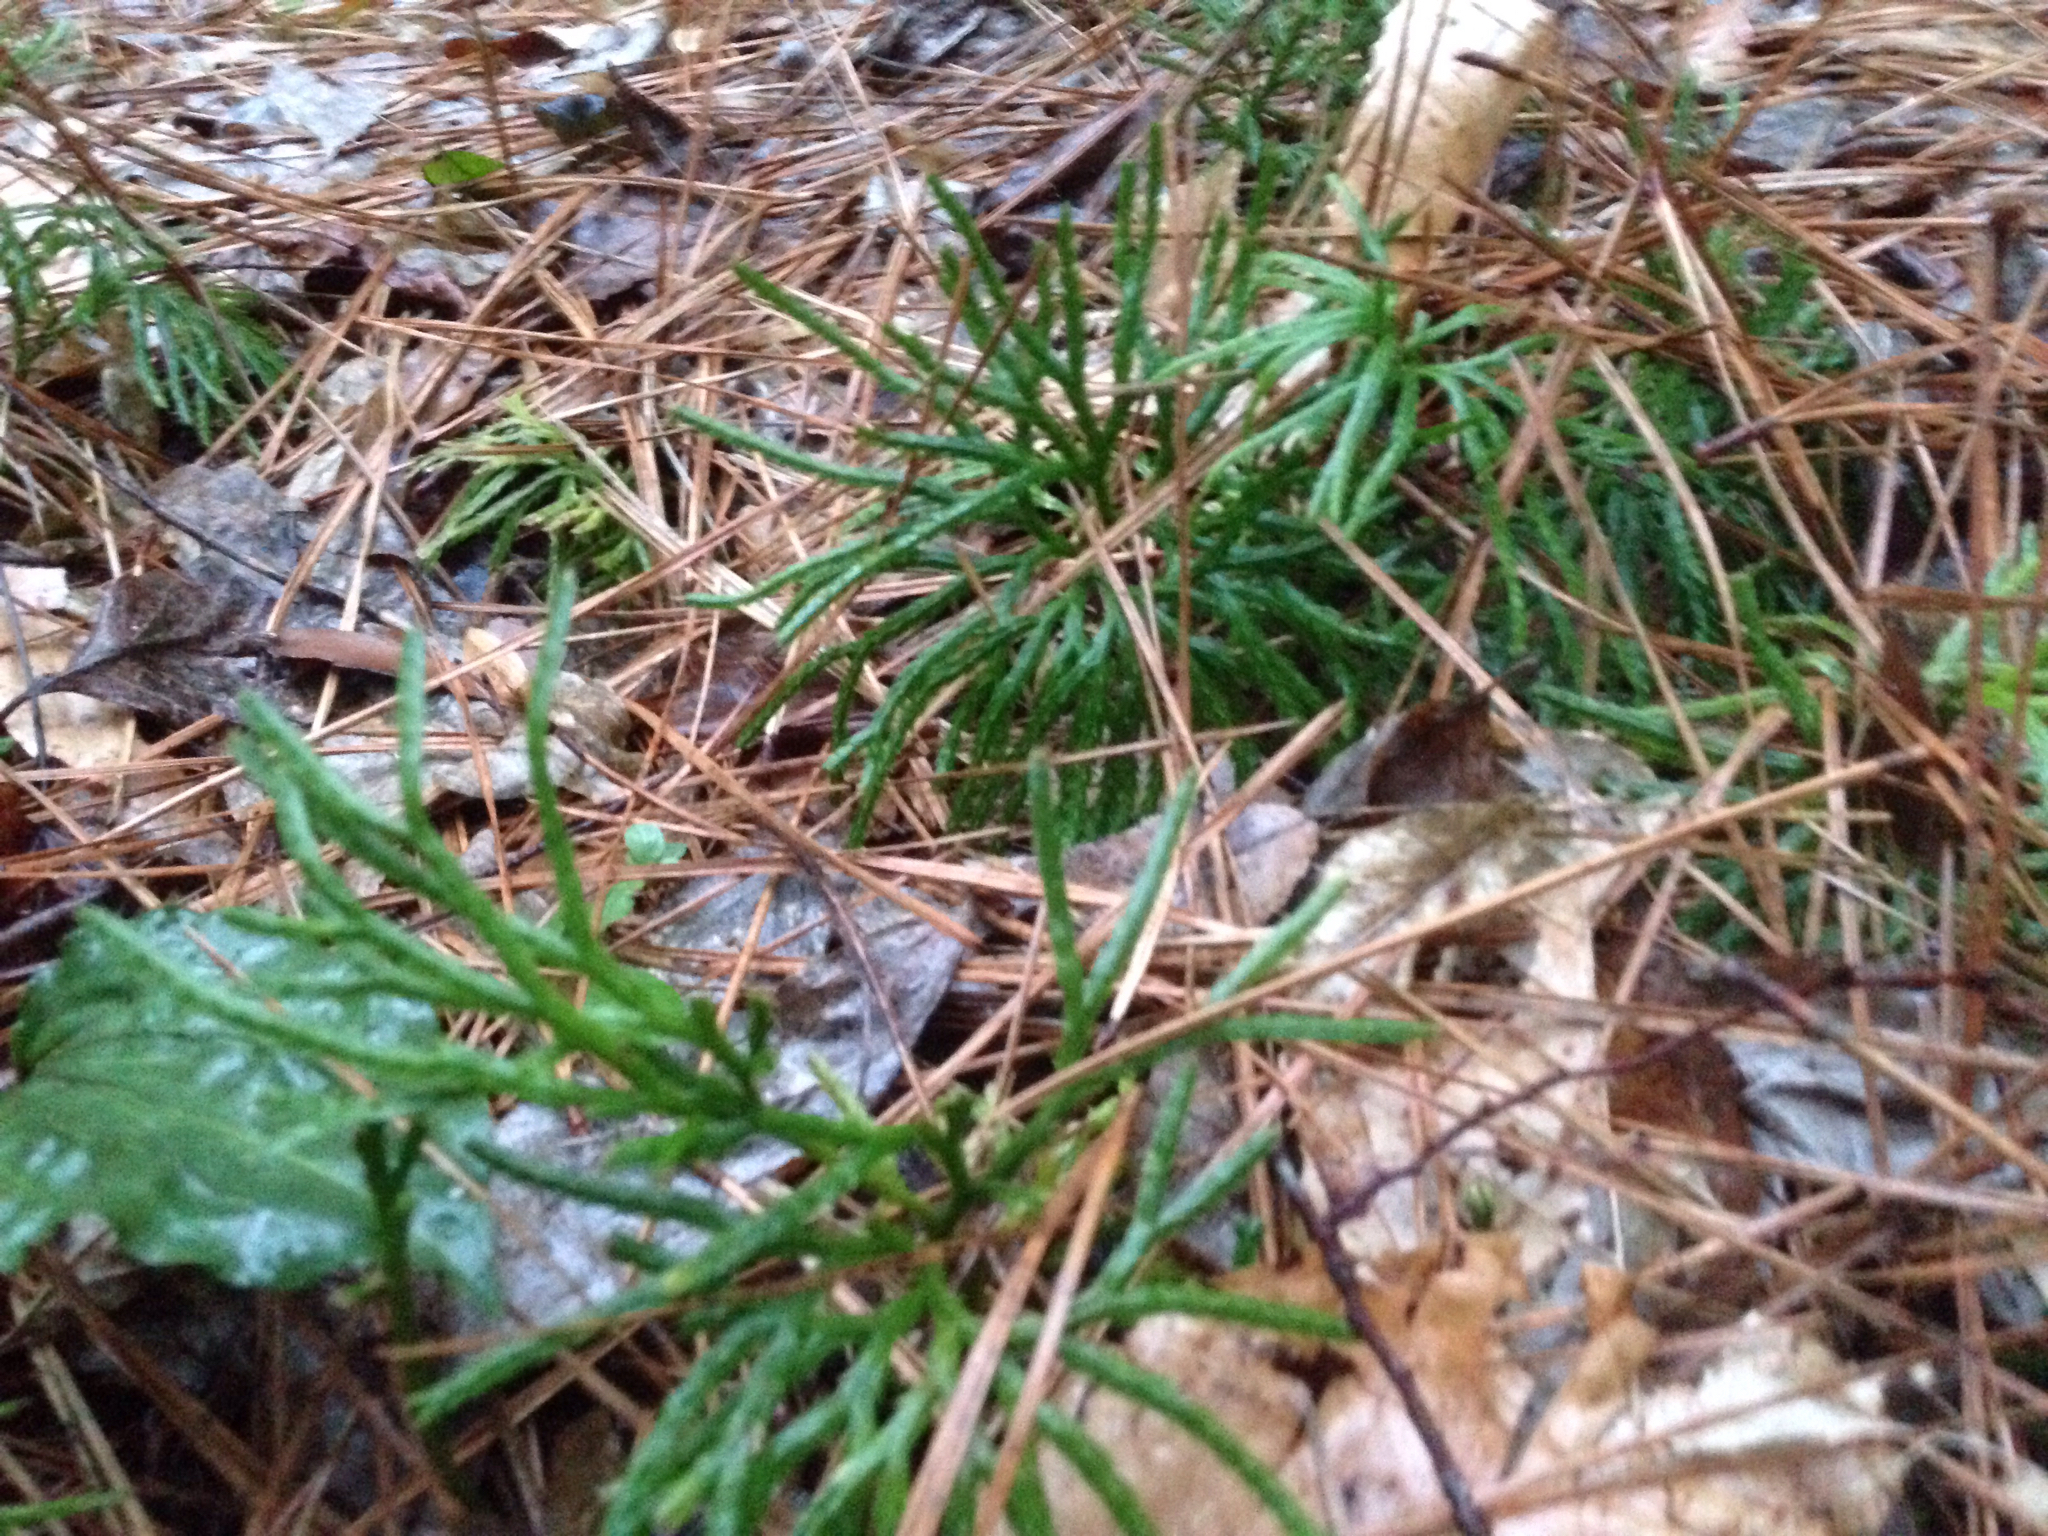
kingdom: Plantae
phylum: Tracheophyta
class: Lycopodiopsida
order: Lycopodiales
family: Lycopodiaceae
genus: Diphasiastrum
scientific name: Diphasiastrum digitatum
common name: Southern running-pine
